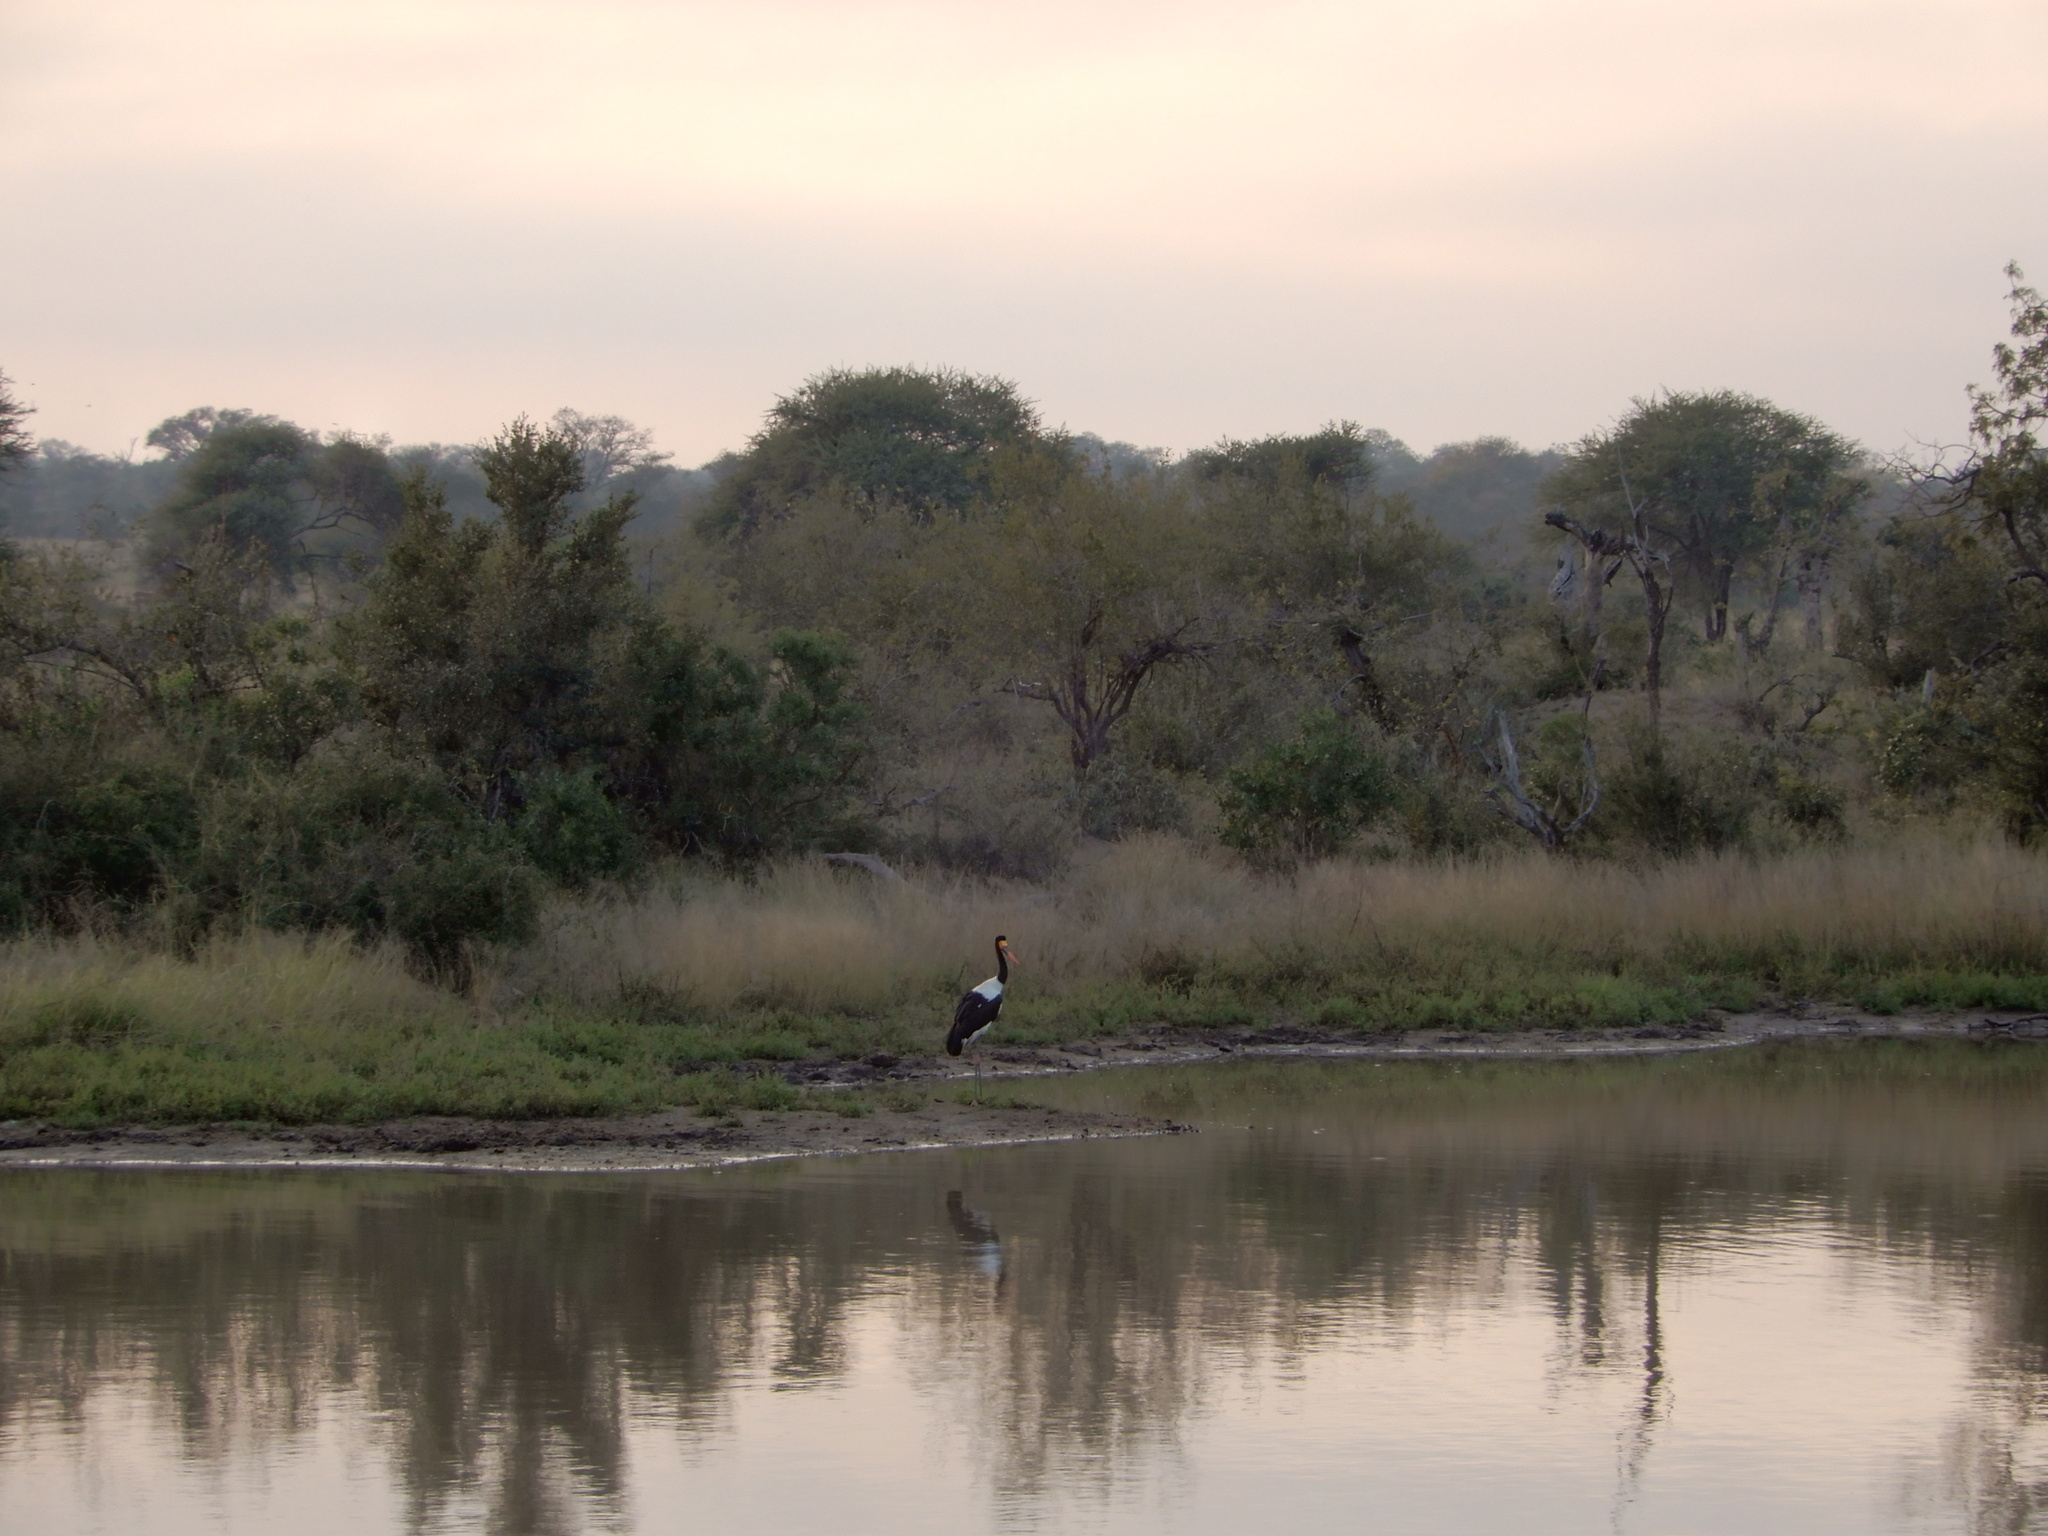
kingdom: Animalia
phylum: Chordata
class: Aves
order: Ciconiiformes
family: Ciconiidae
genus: Ephippiorhynchus
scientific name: Ephippiorhynchus senegalensis
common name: Saddle-billed stork
